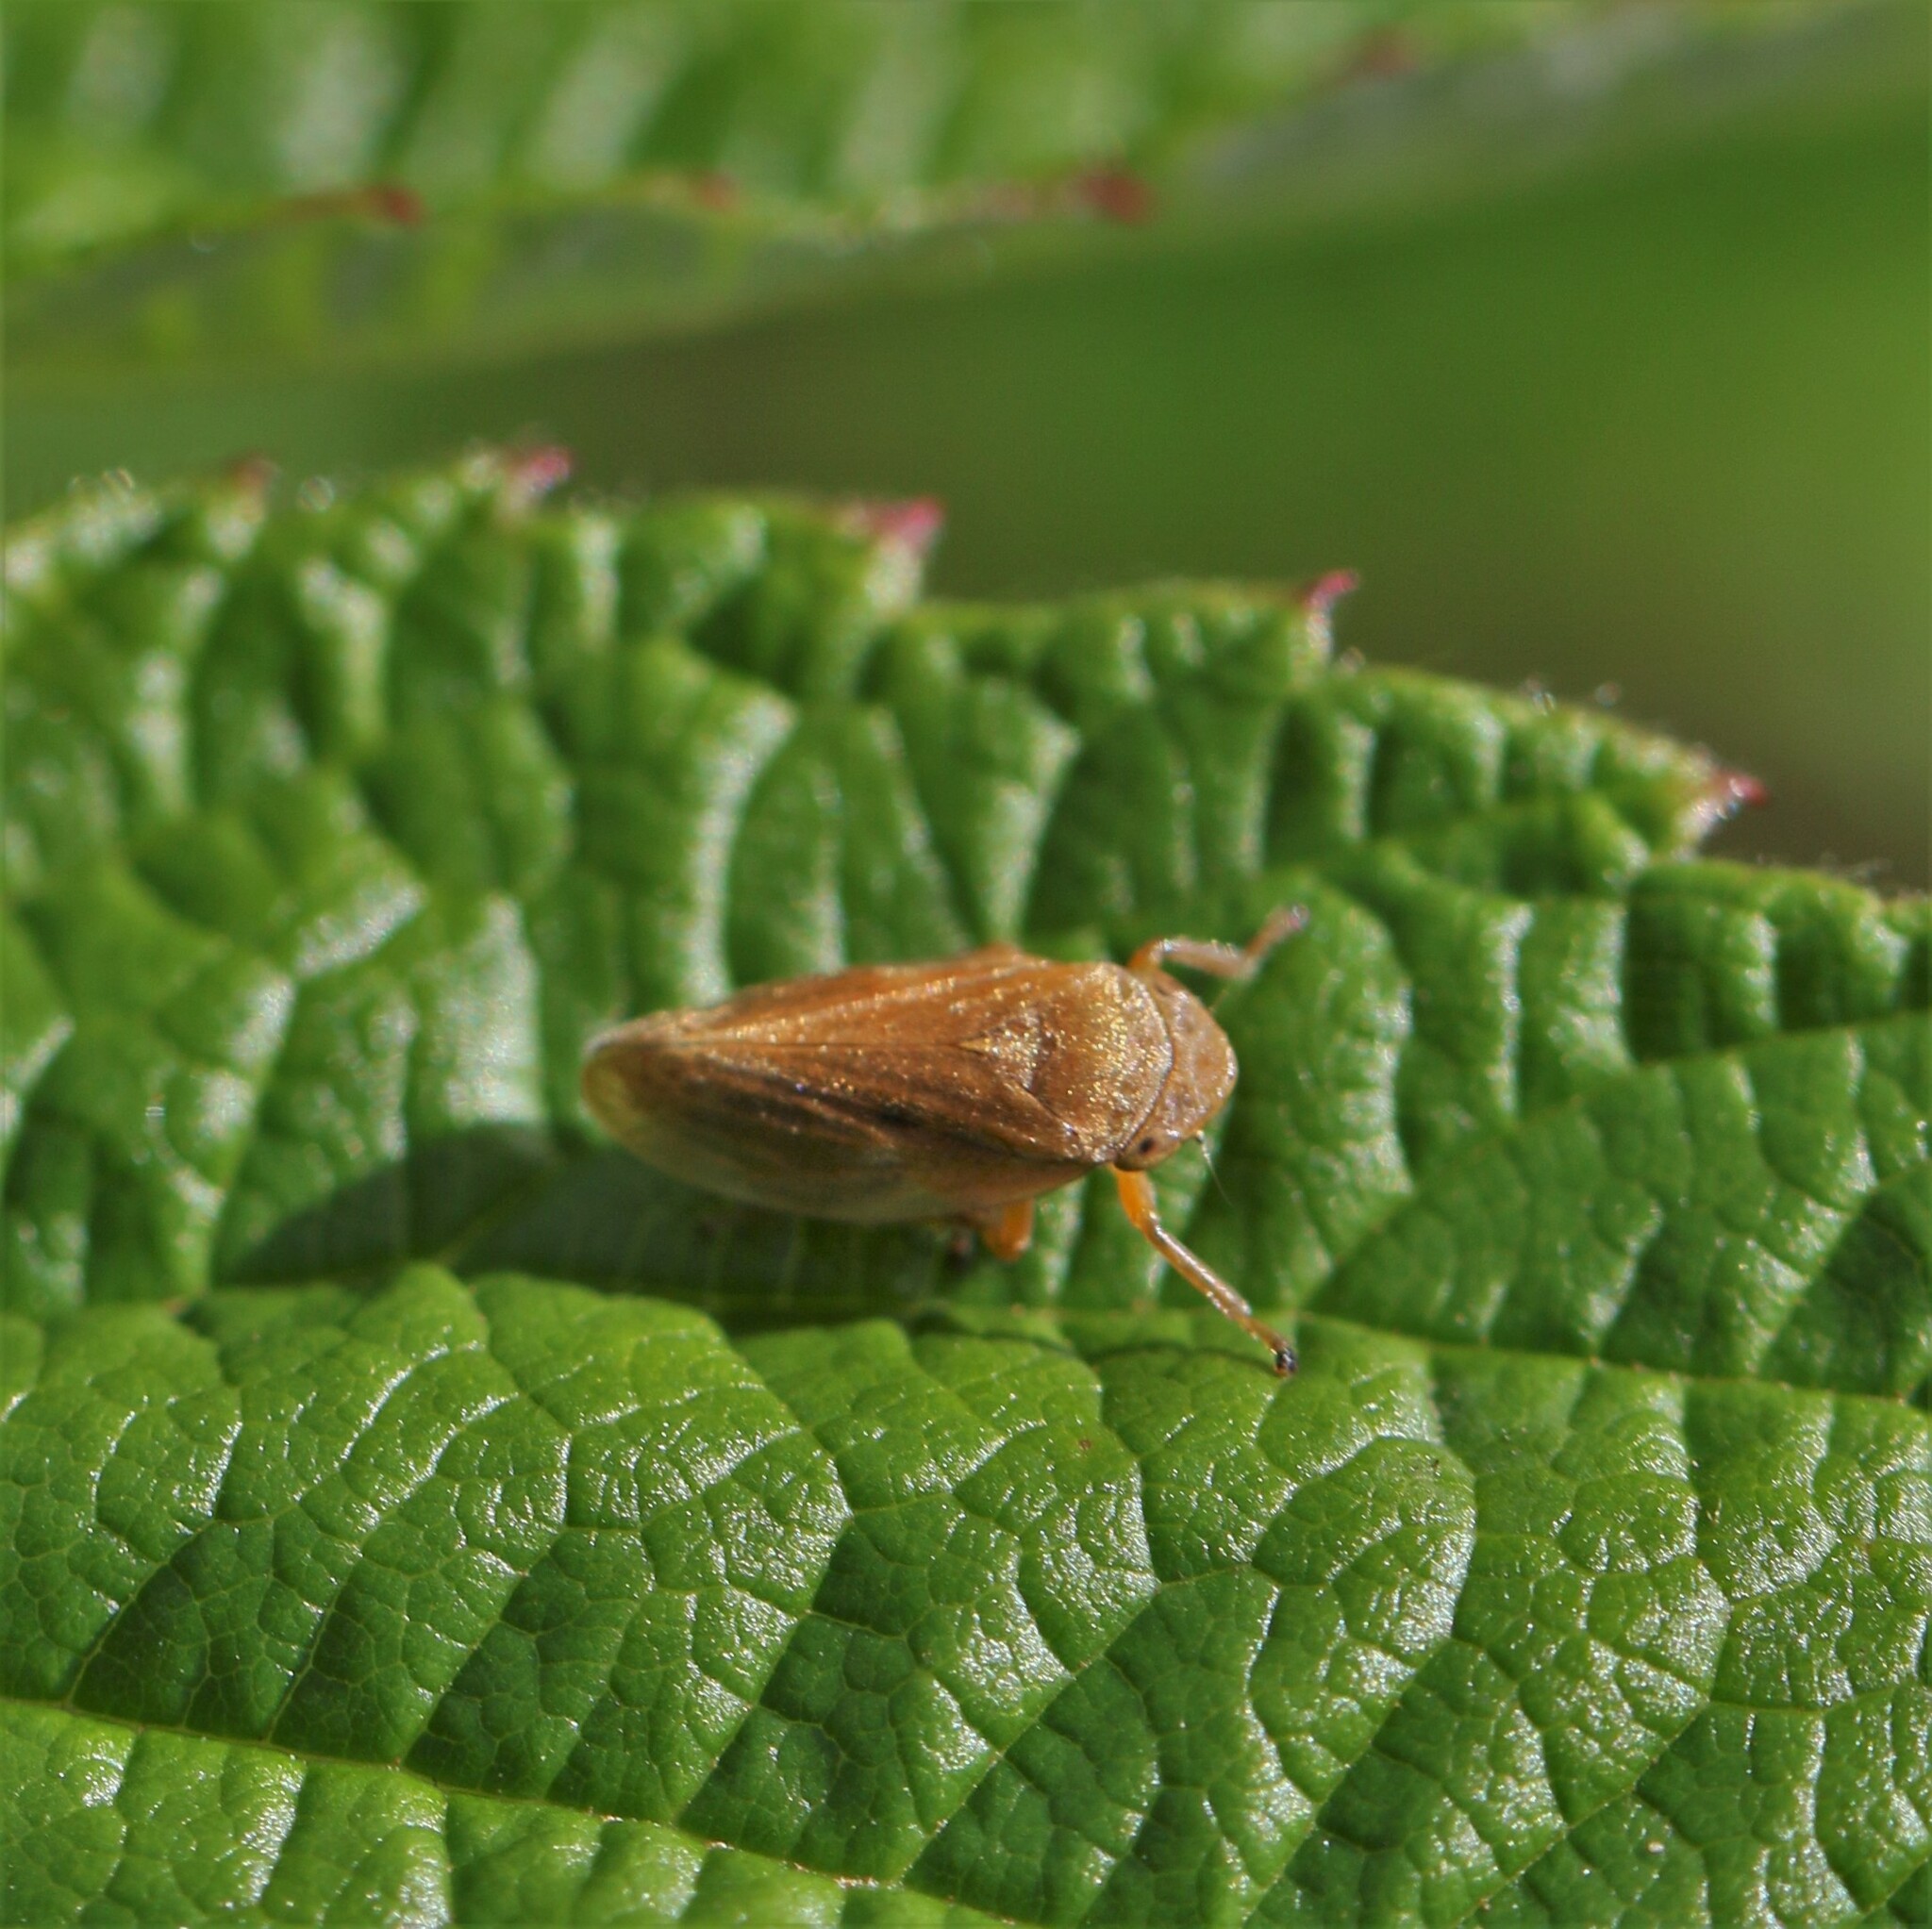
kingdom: Animalia
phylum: Arthropoda
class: Insecta
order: Hemiptera
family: Aphrophoridae
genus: Philaenus
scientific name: Philaenus spumarius
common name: Meadow spittlebug
